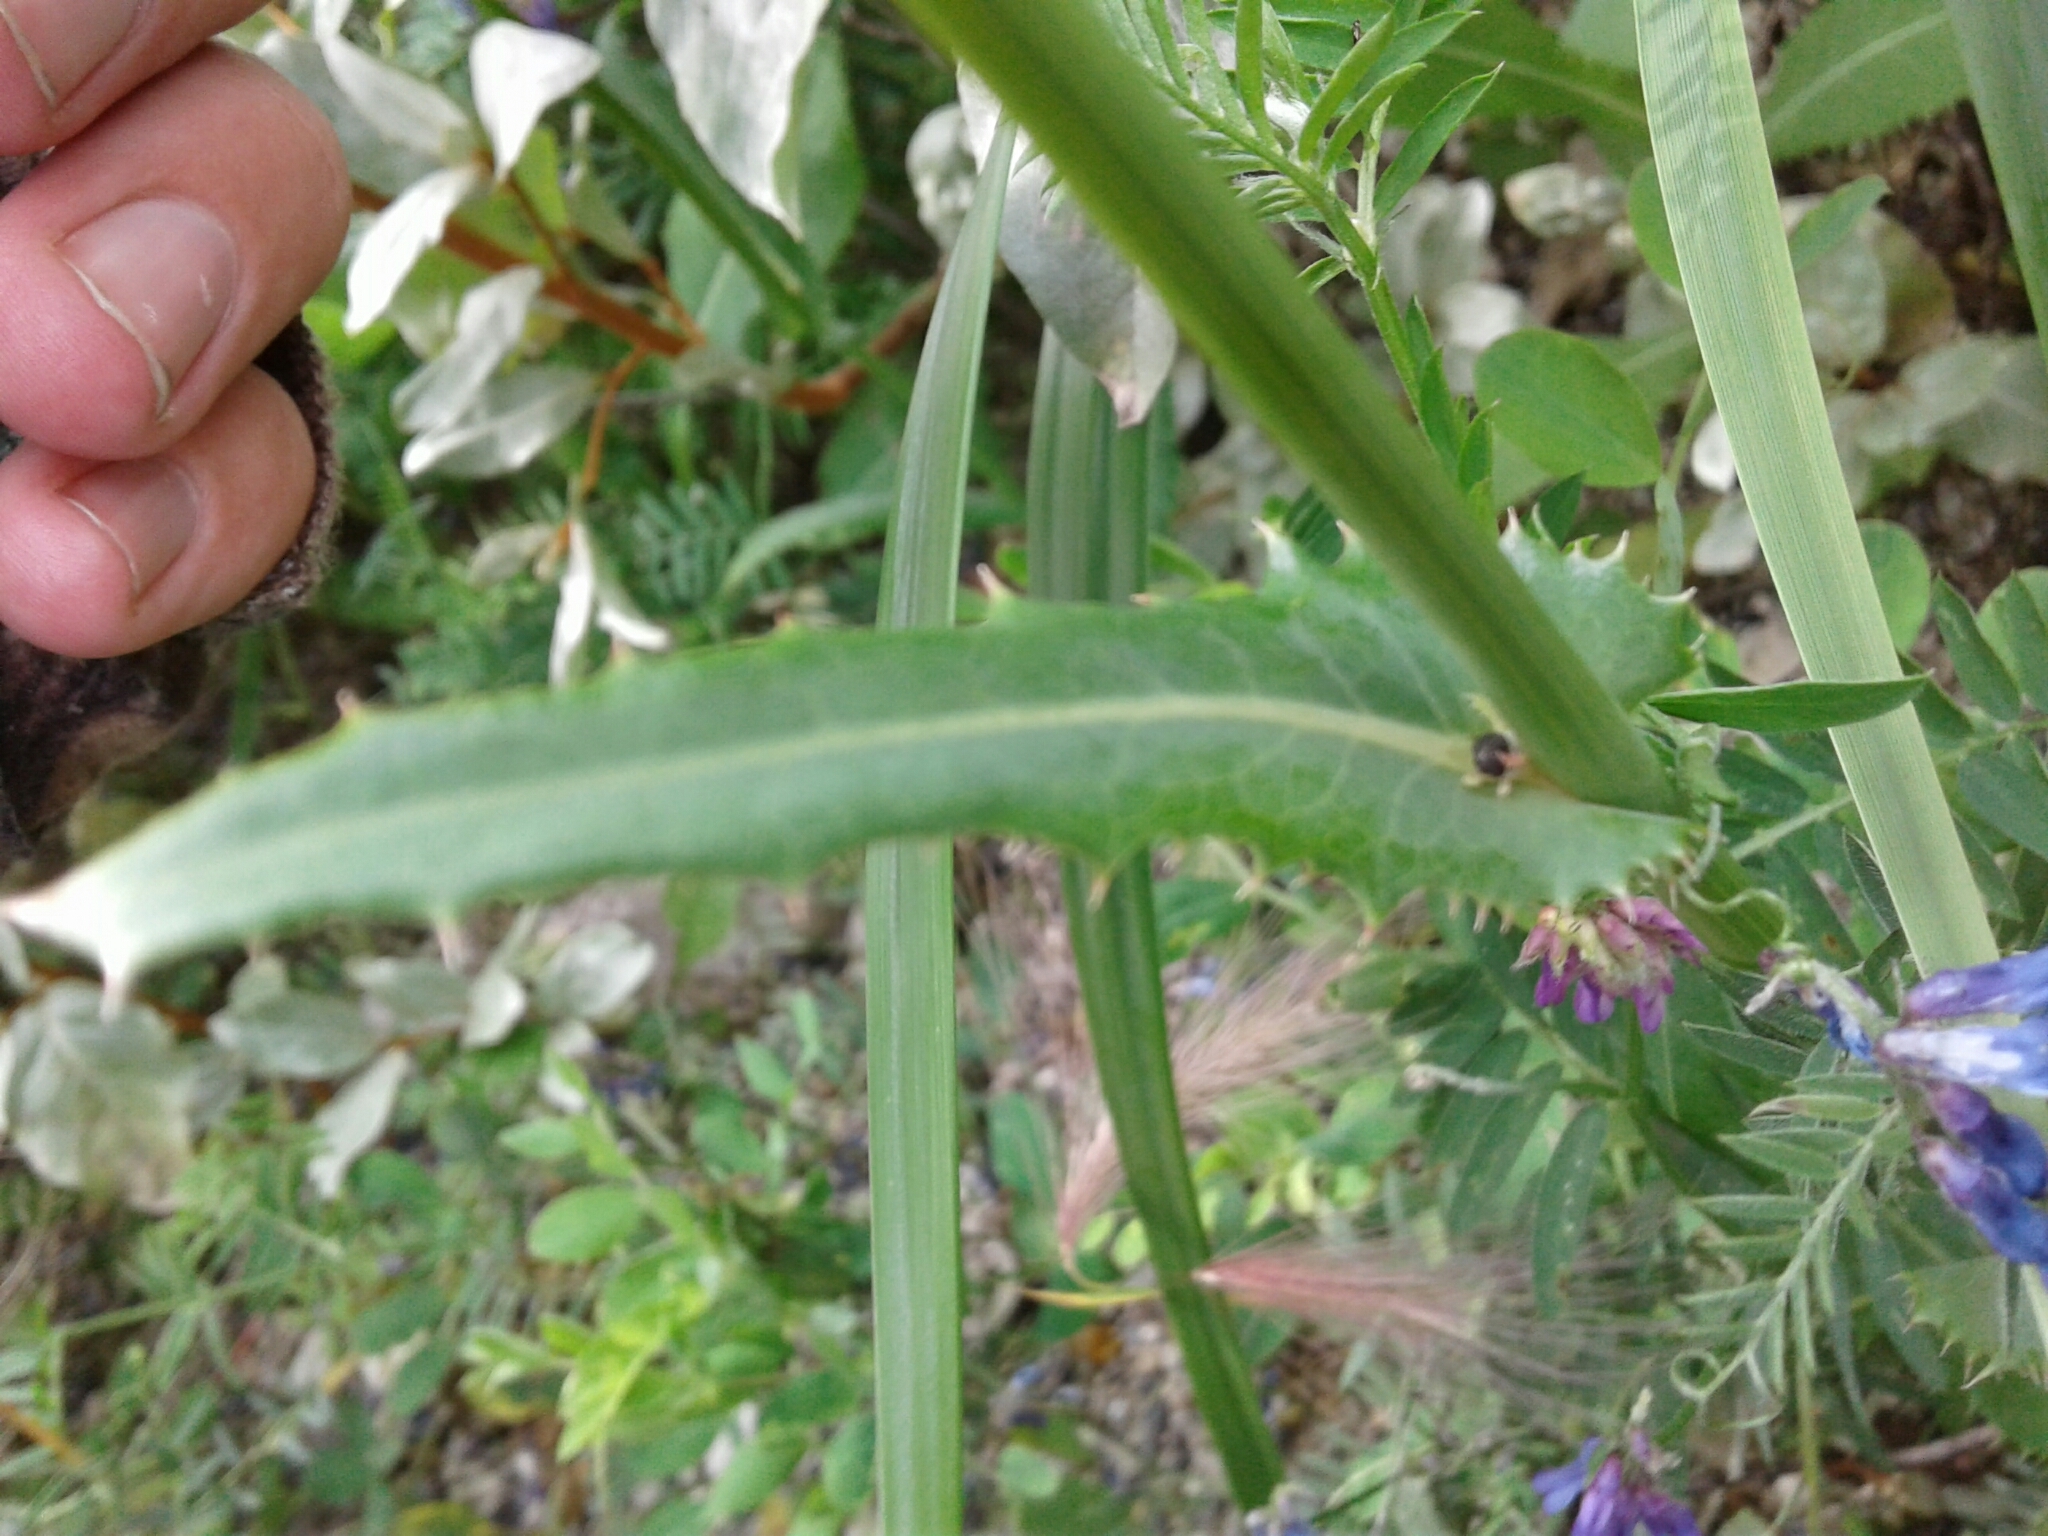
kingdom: Plantae
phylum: Tracheophyta
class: Magnoliopsida
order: Asterales
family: Asteraceae
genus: Sonchus
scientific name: Sonchus arvensis
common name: Perennial sow-thistle
